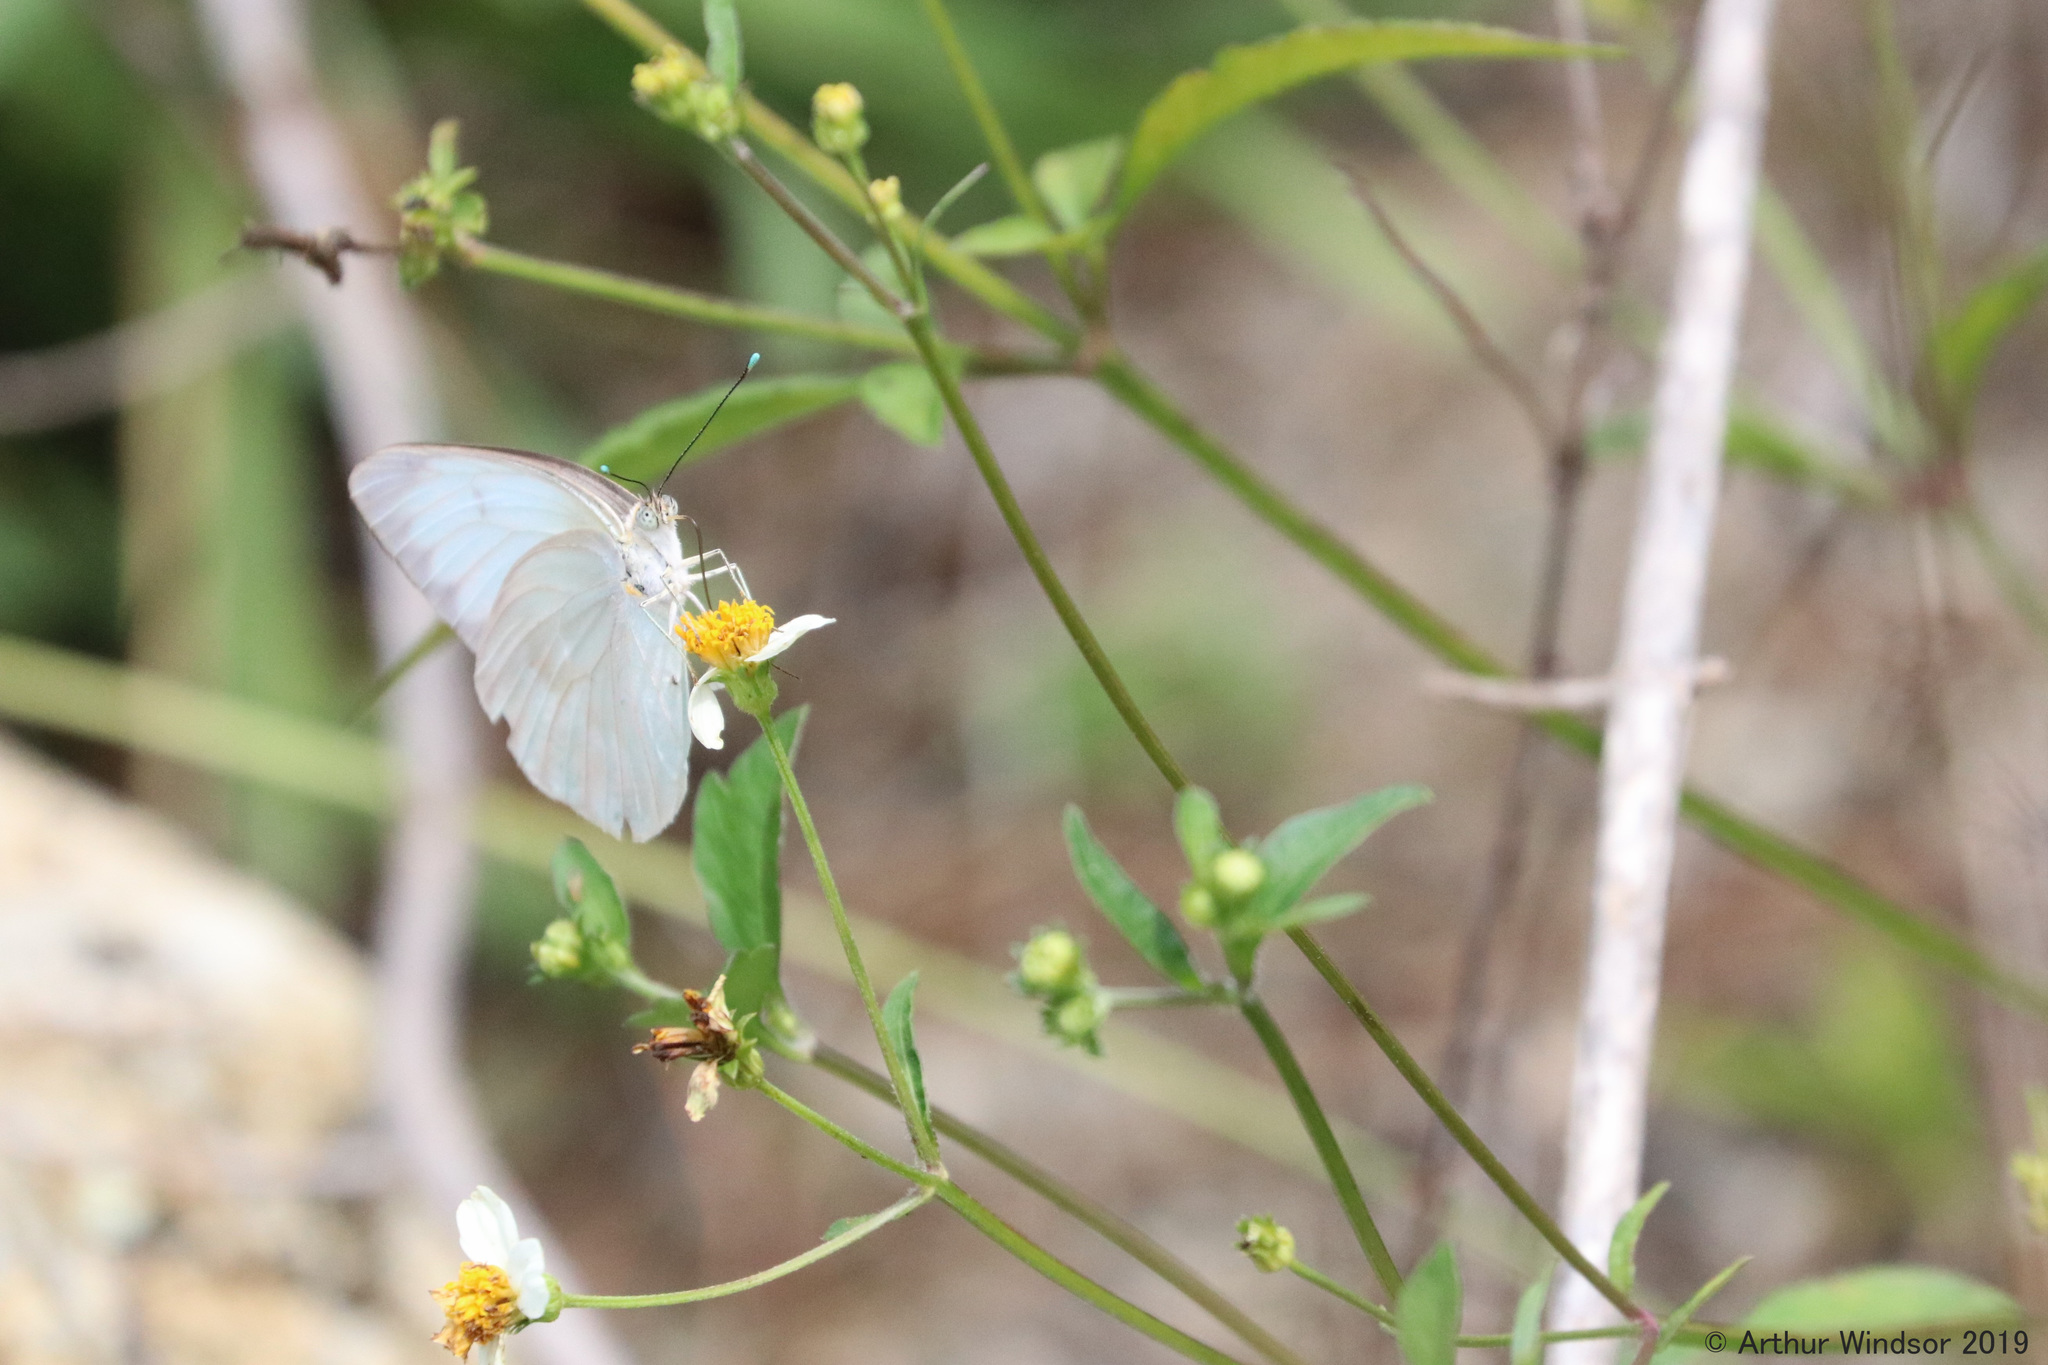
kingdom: Animalia
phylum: Arthropoda
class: Insecta
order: Lepidoptera
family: Pieridae
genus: Ascia
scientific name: Ascia monuste
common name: Great southern white
